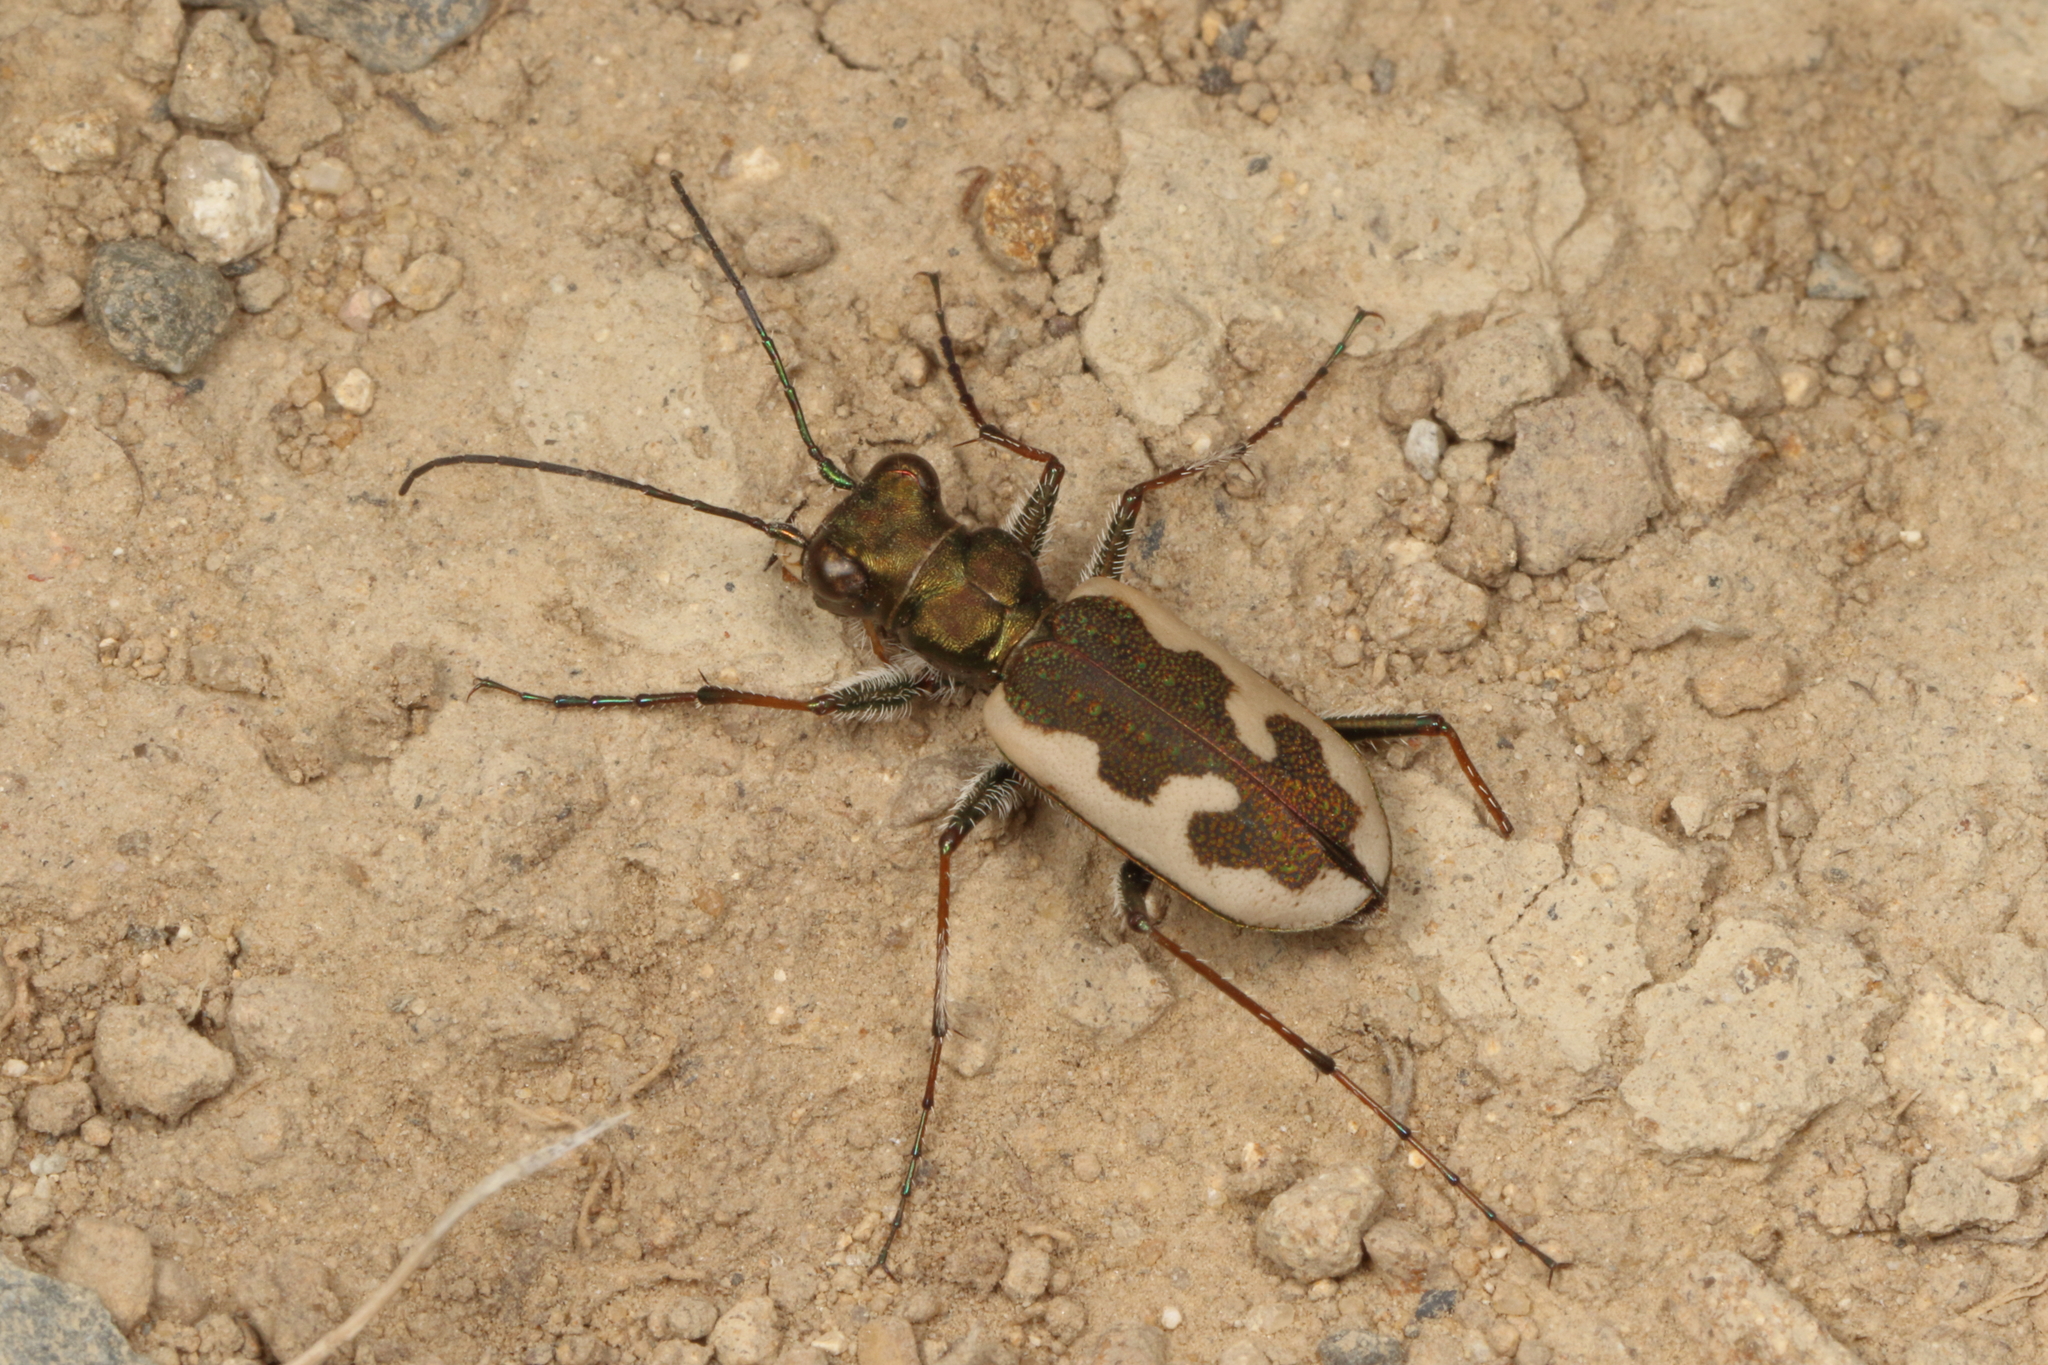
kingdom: Animalia
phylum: Arthropoda
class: Insecta
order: Coleoptera
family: Carabidae
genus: Neocicindela
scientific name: Neocicindela latecincta
